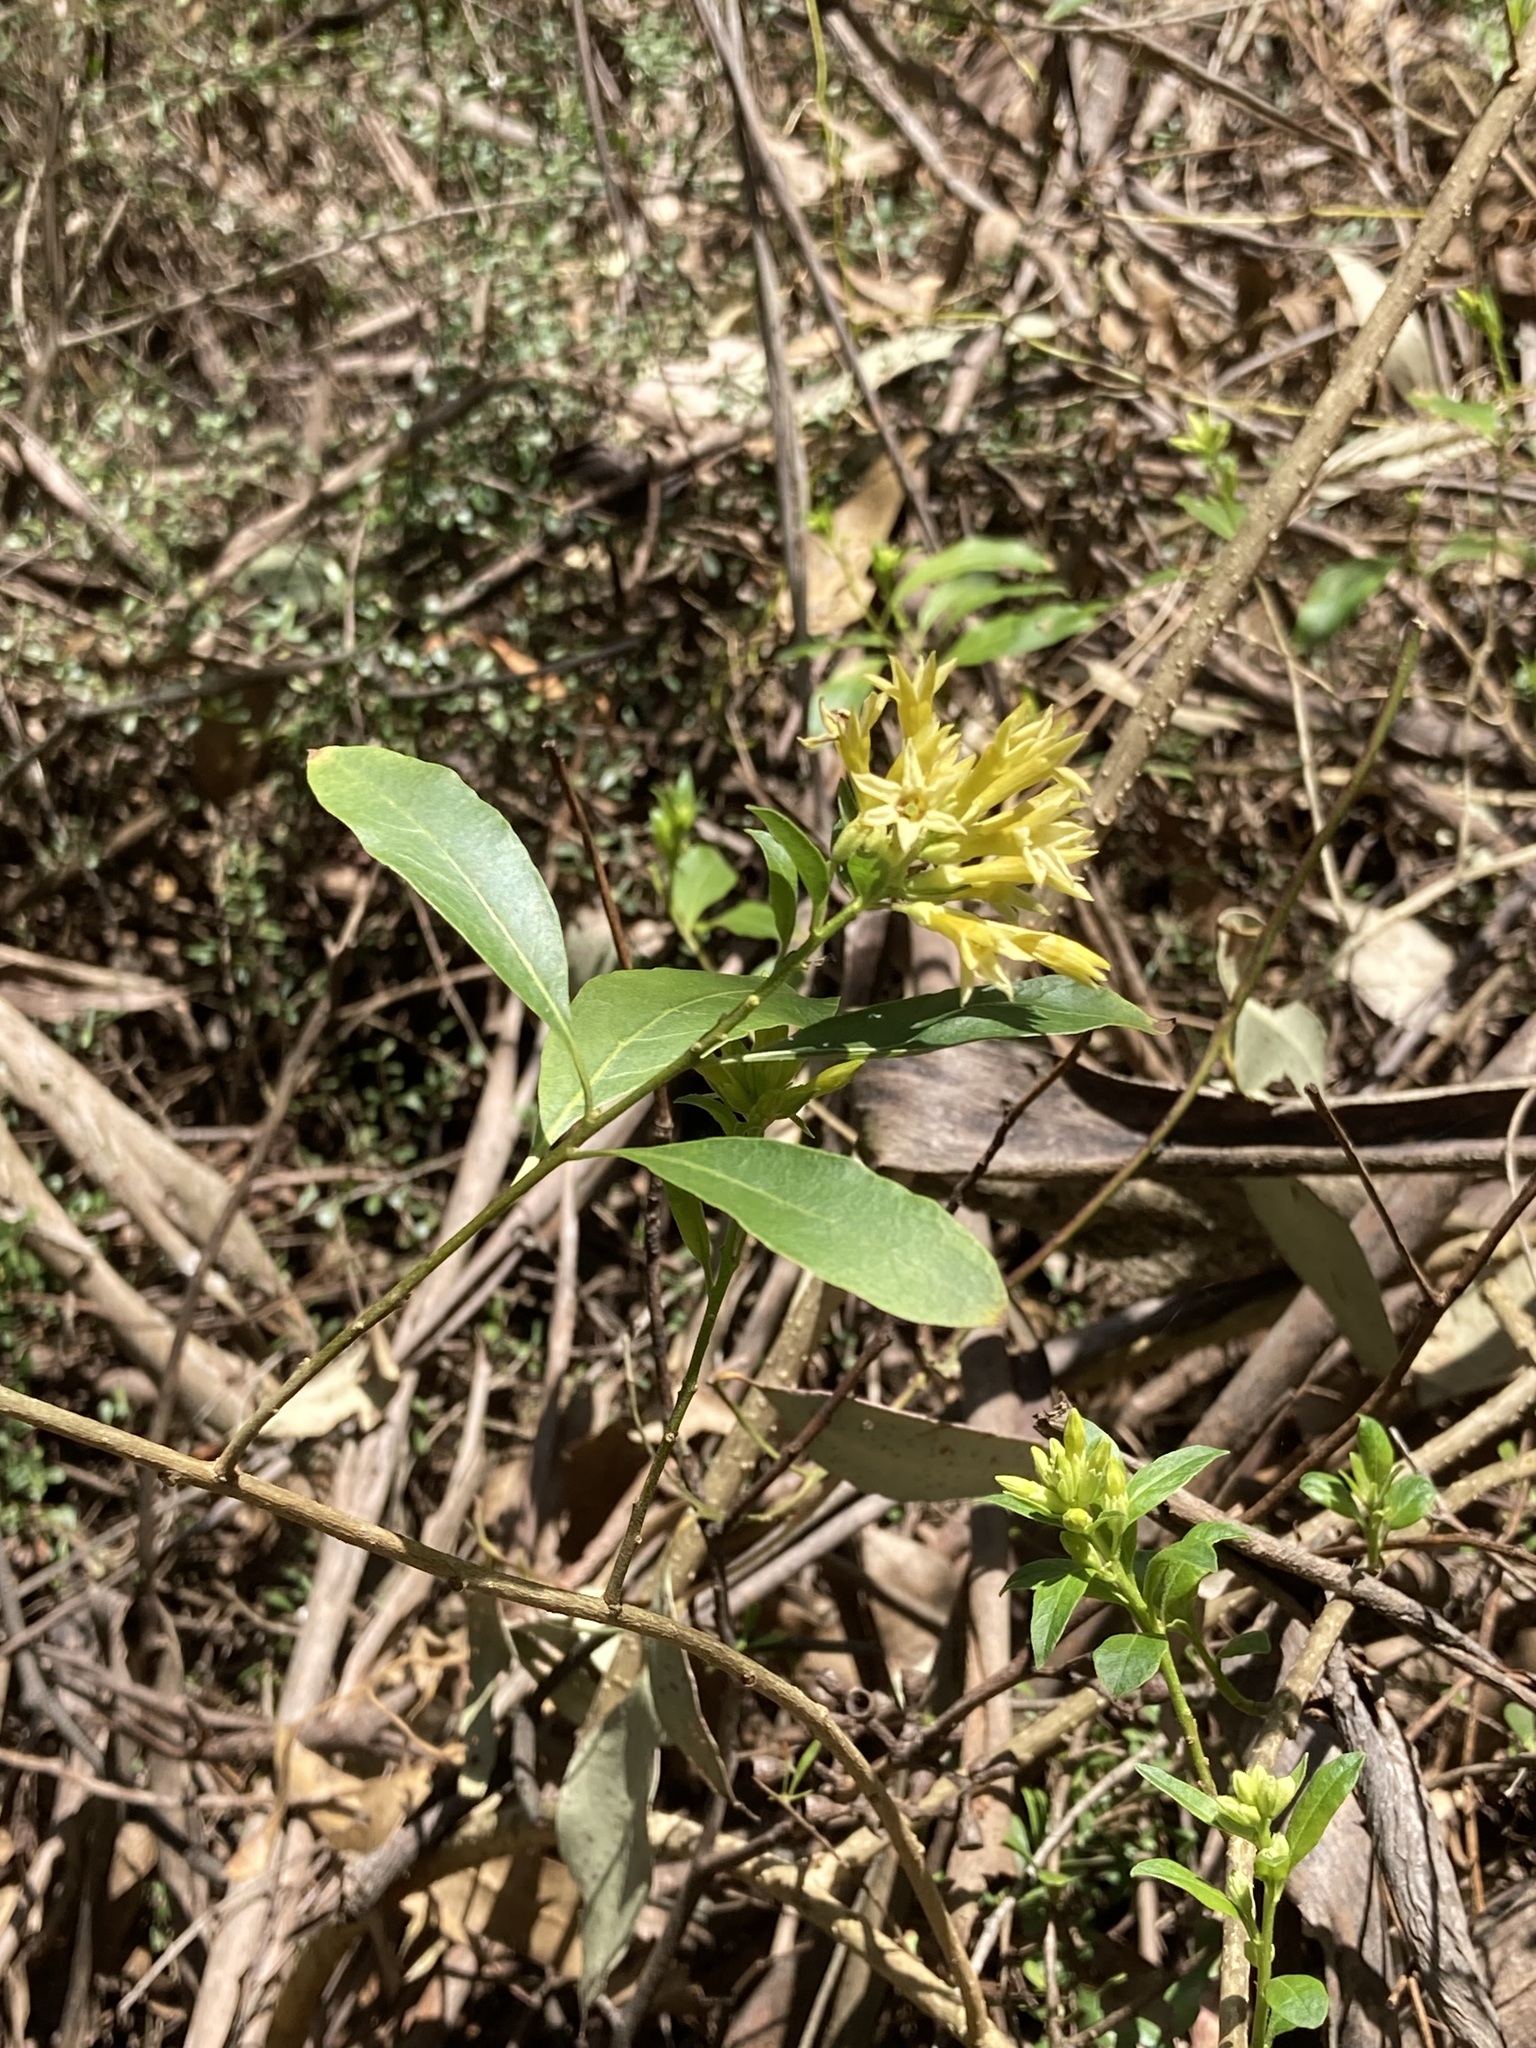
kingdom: Plantae
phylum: Tracheophyta
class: Magnoliopsida
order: Solanales
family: Solanaceae
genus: Cestrum
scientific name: Cestrum parqui
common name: Chilean cestrum
